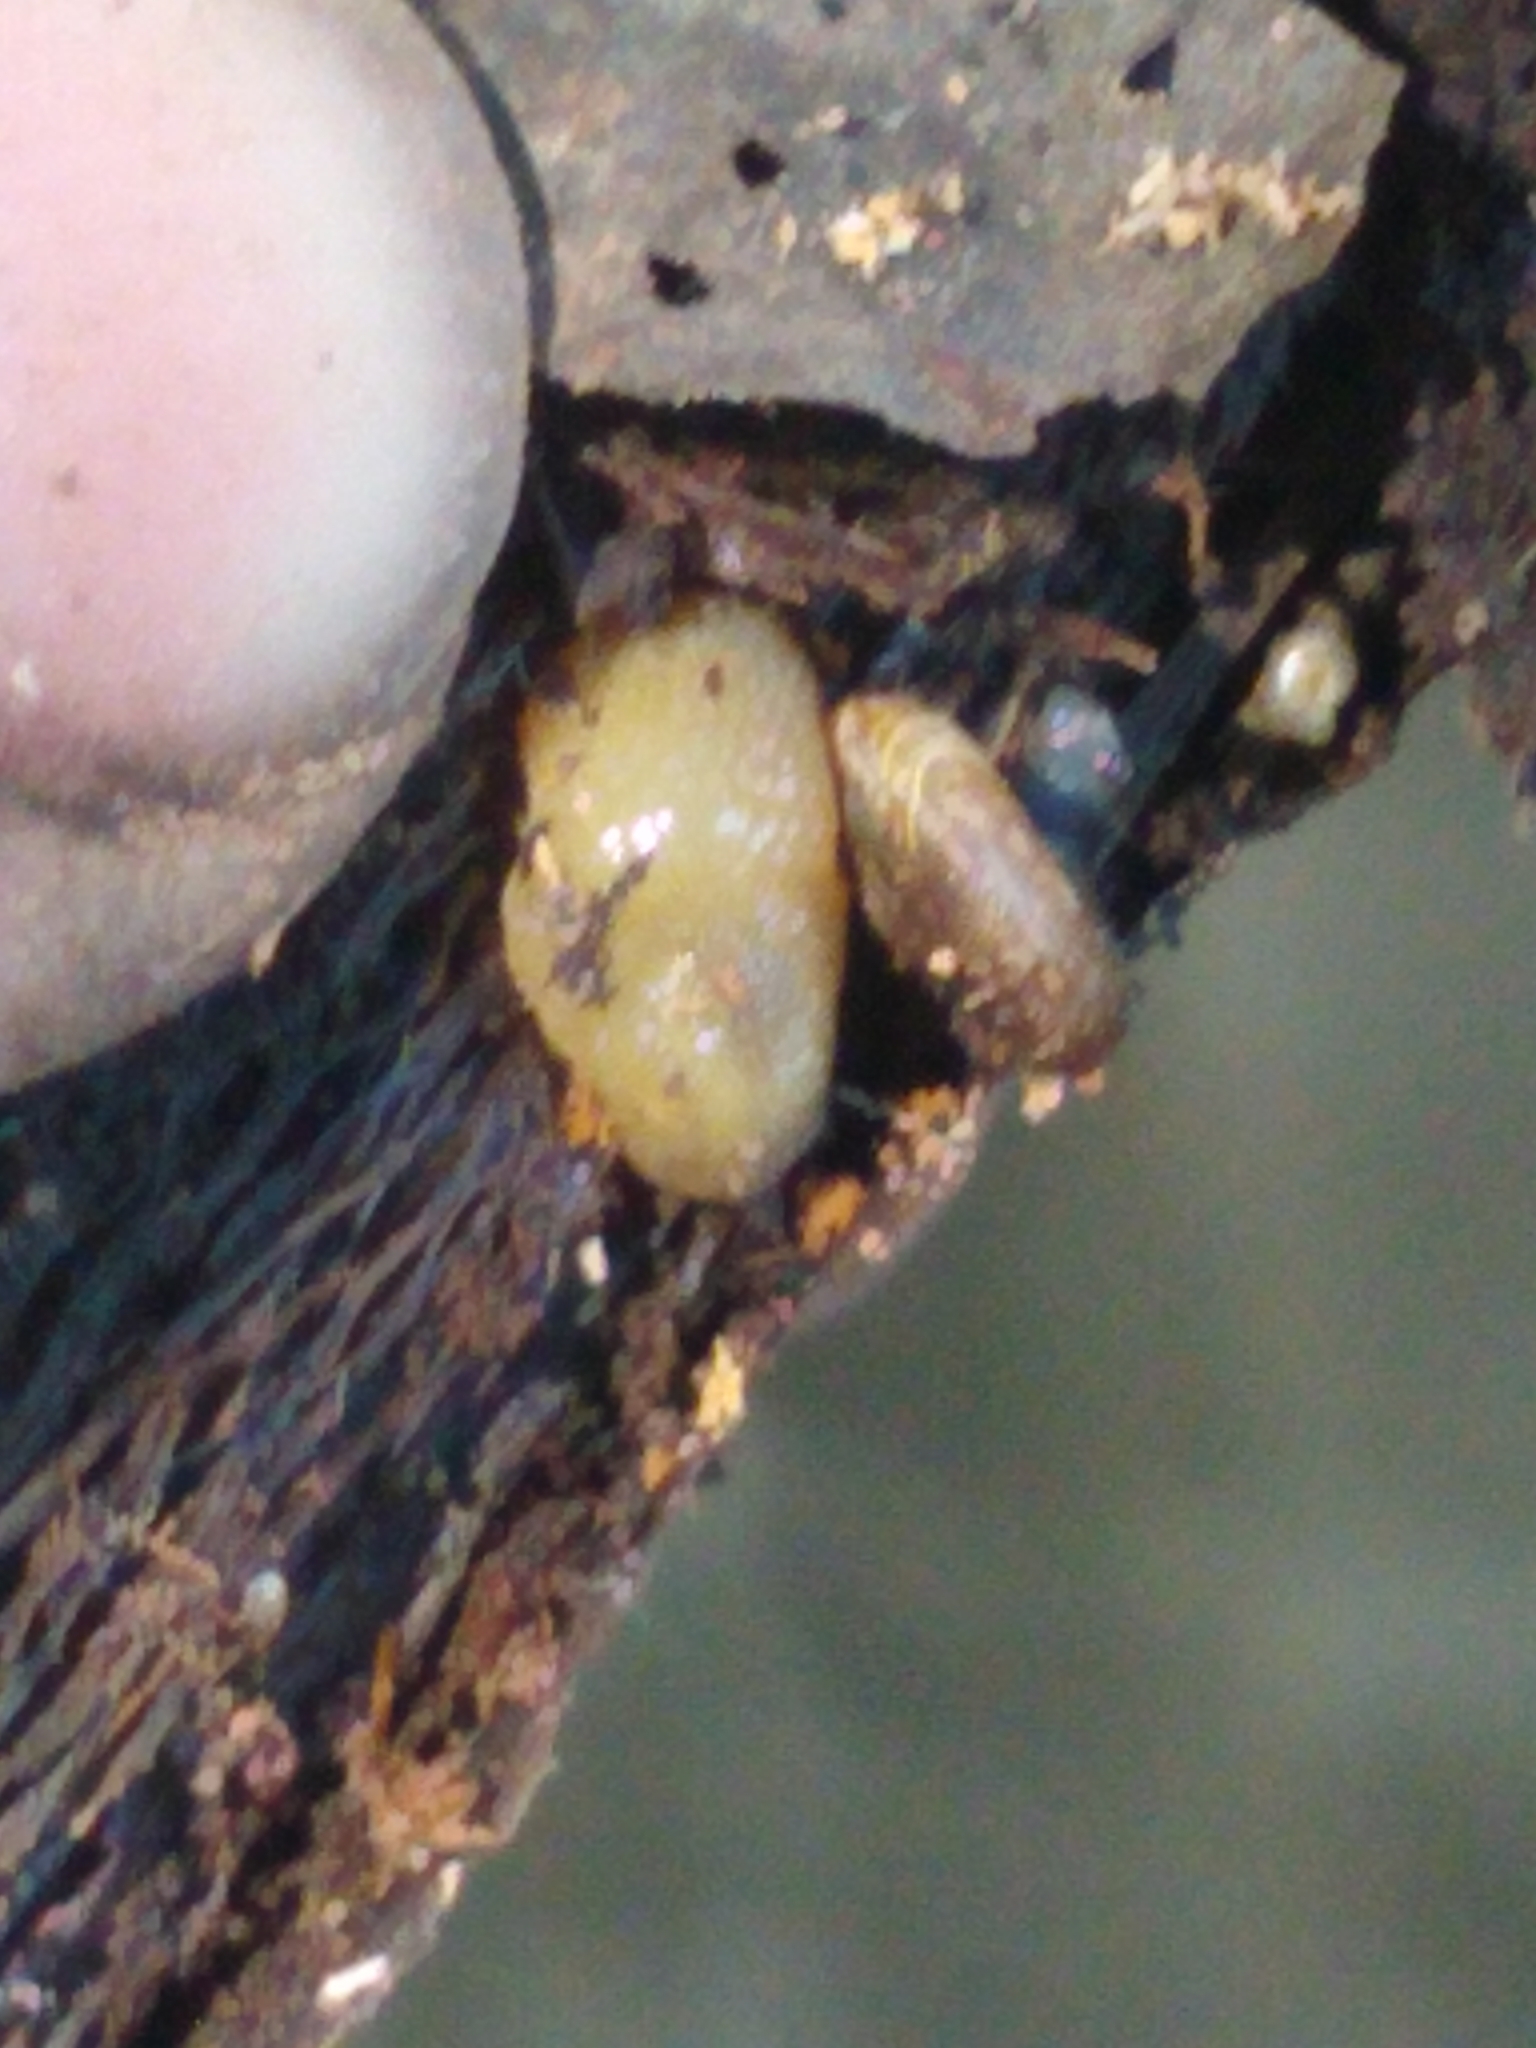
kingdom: Animalia
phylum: Mollusca
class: Gastropoda
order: Stylommatophora
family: Discidae
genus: Discus
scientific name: Discus rotundatus
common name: Rounded snail
